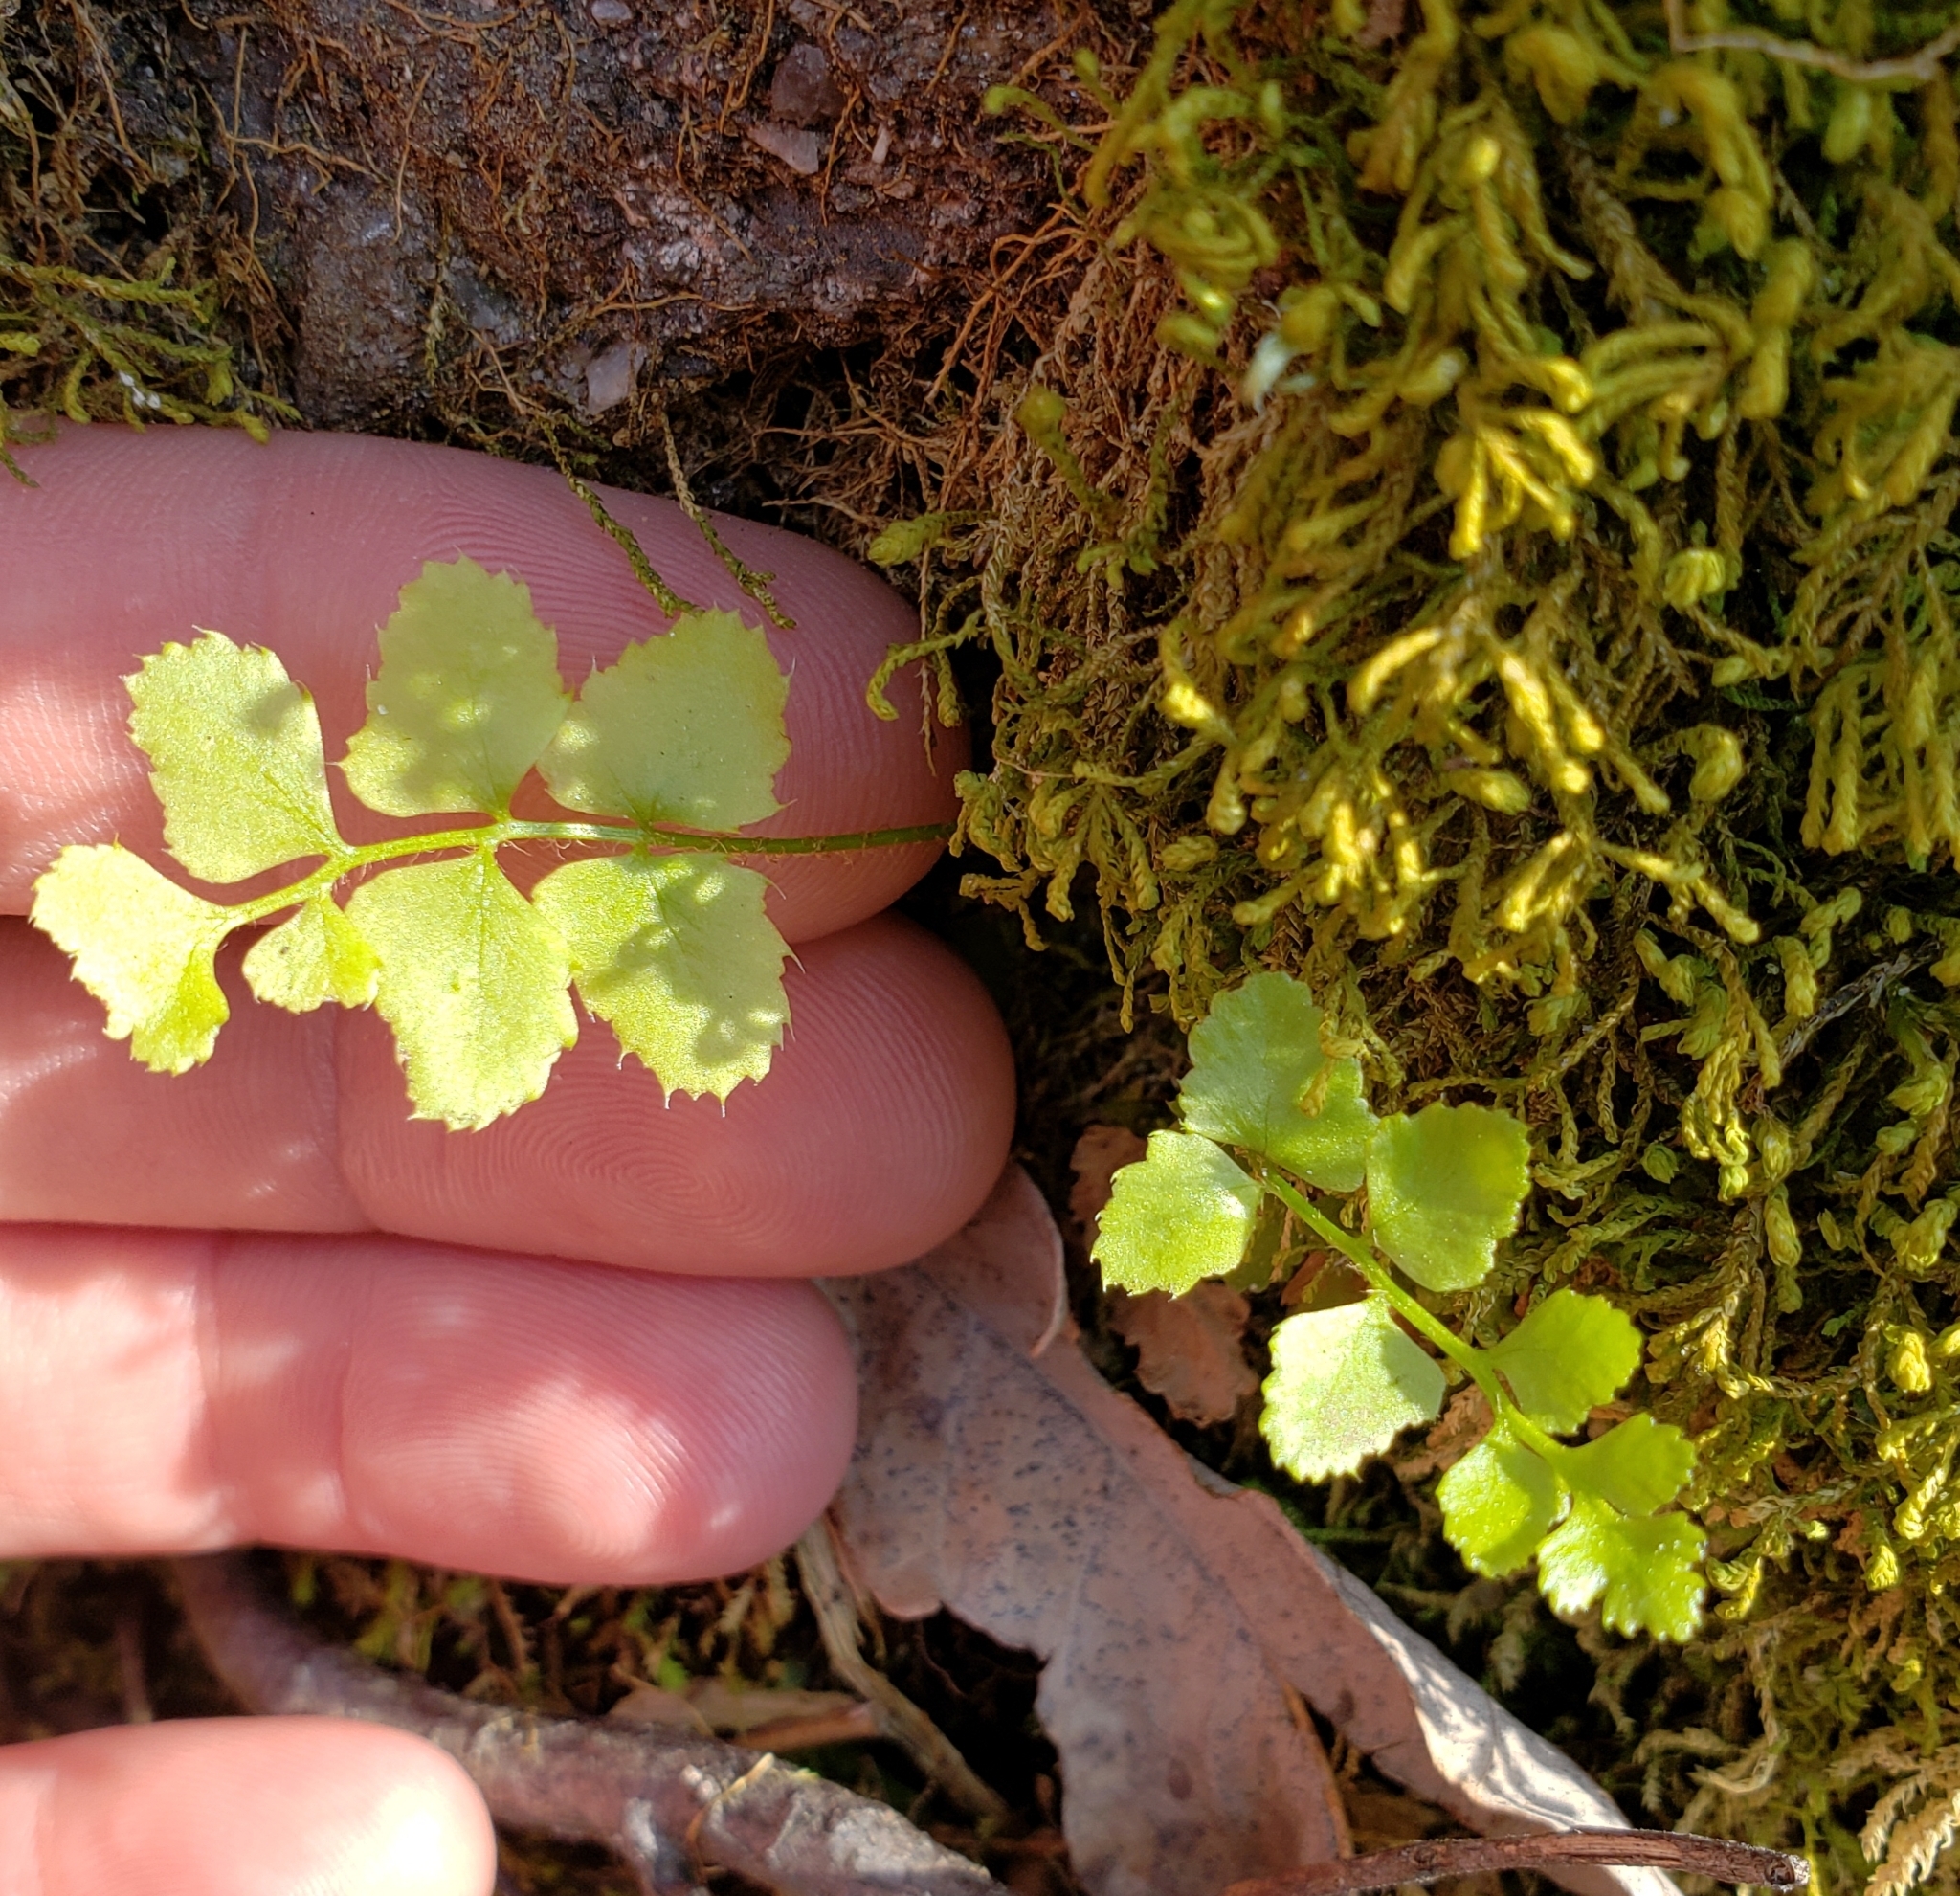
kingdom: Plantae
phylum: Tracheophyta
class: Polypodiopsida
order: Polypodiales
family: Dryopteridaceae
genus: Polystichum
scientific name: Polystichum acrostichoides
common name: Christmas fern
